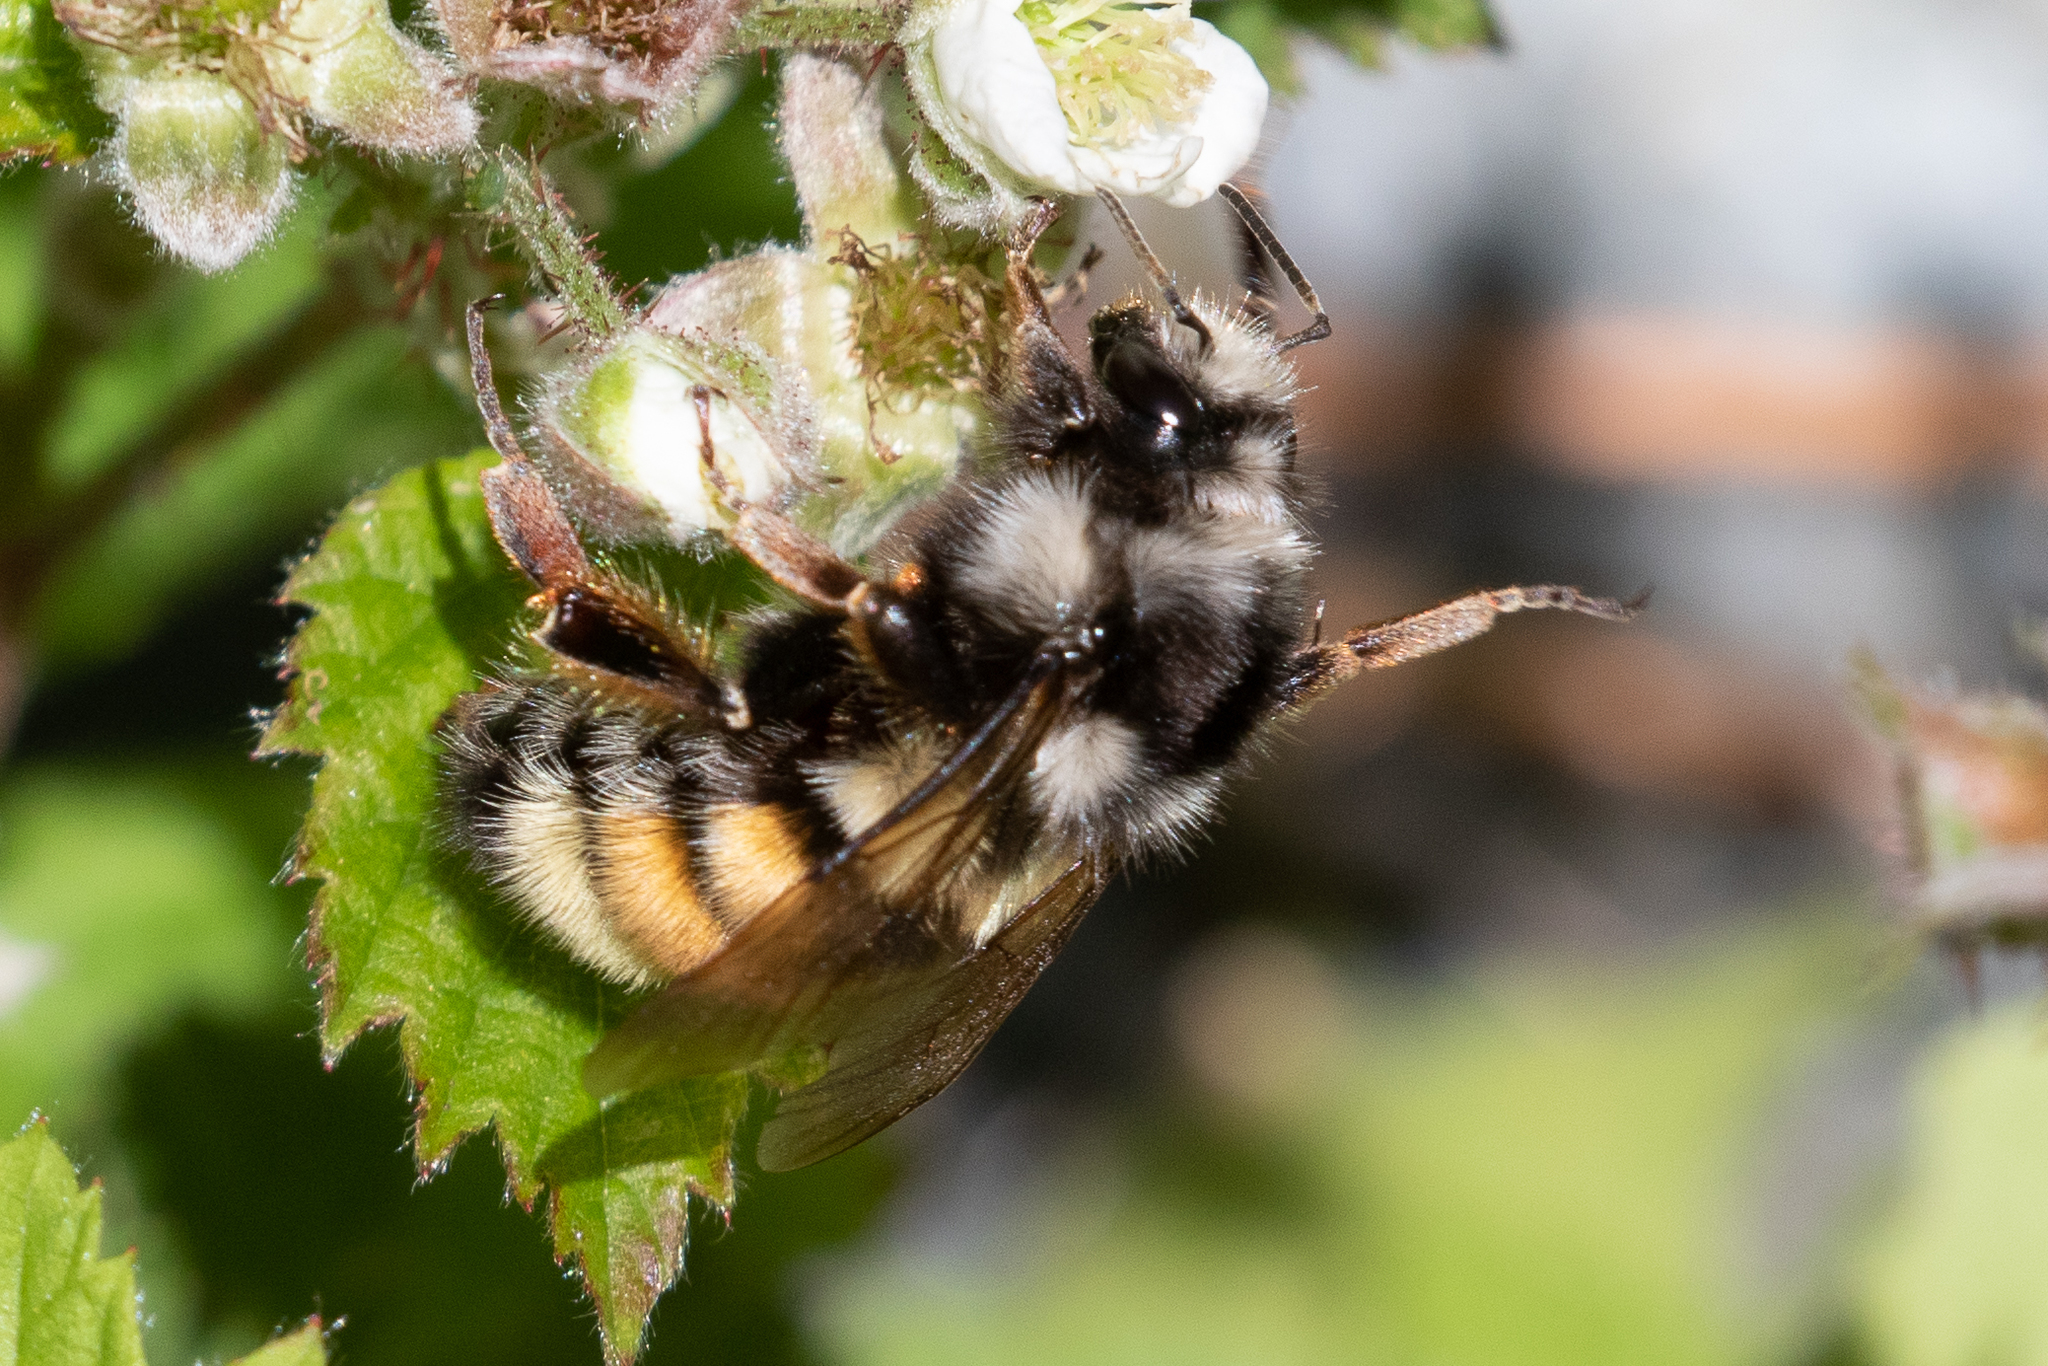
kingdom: Animalia
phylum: Arthropoda
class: Insecta
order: Hymenoptera
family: Apidae
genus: Bombus
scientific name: Bombus vancouverensis
